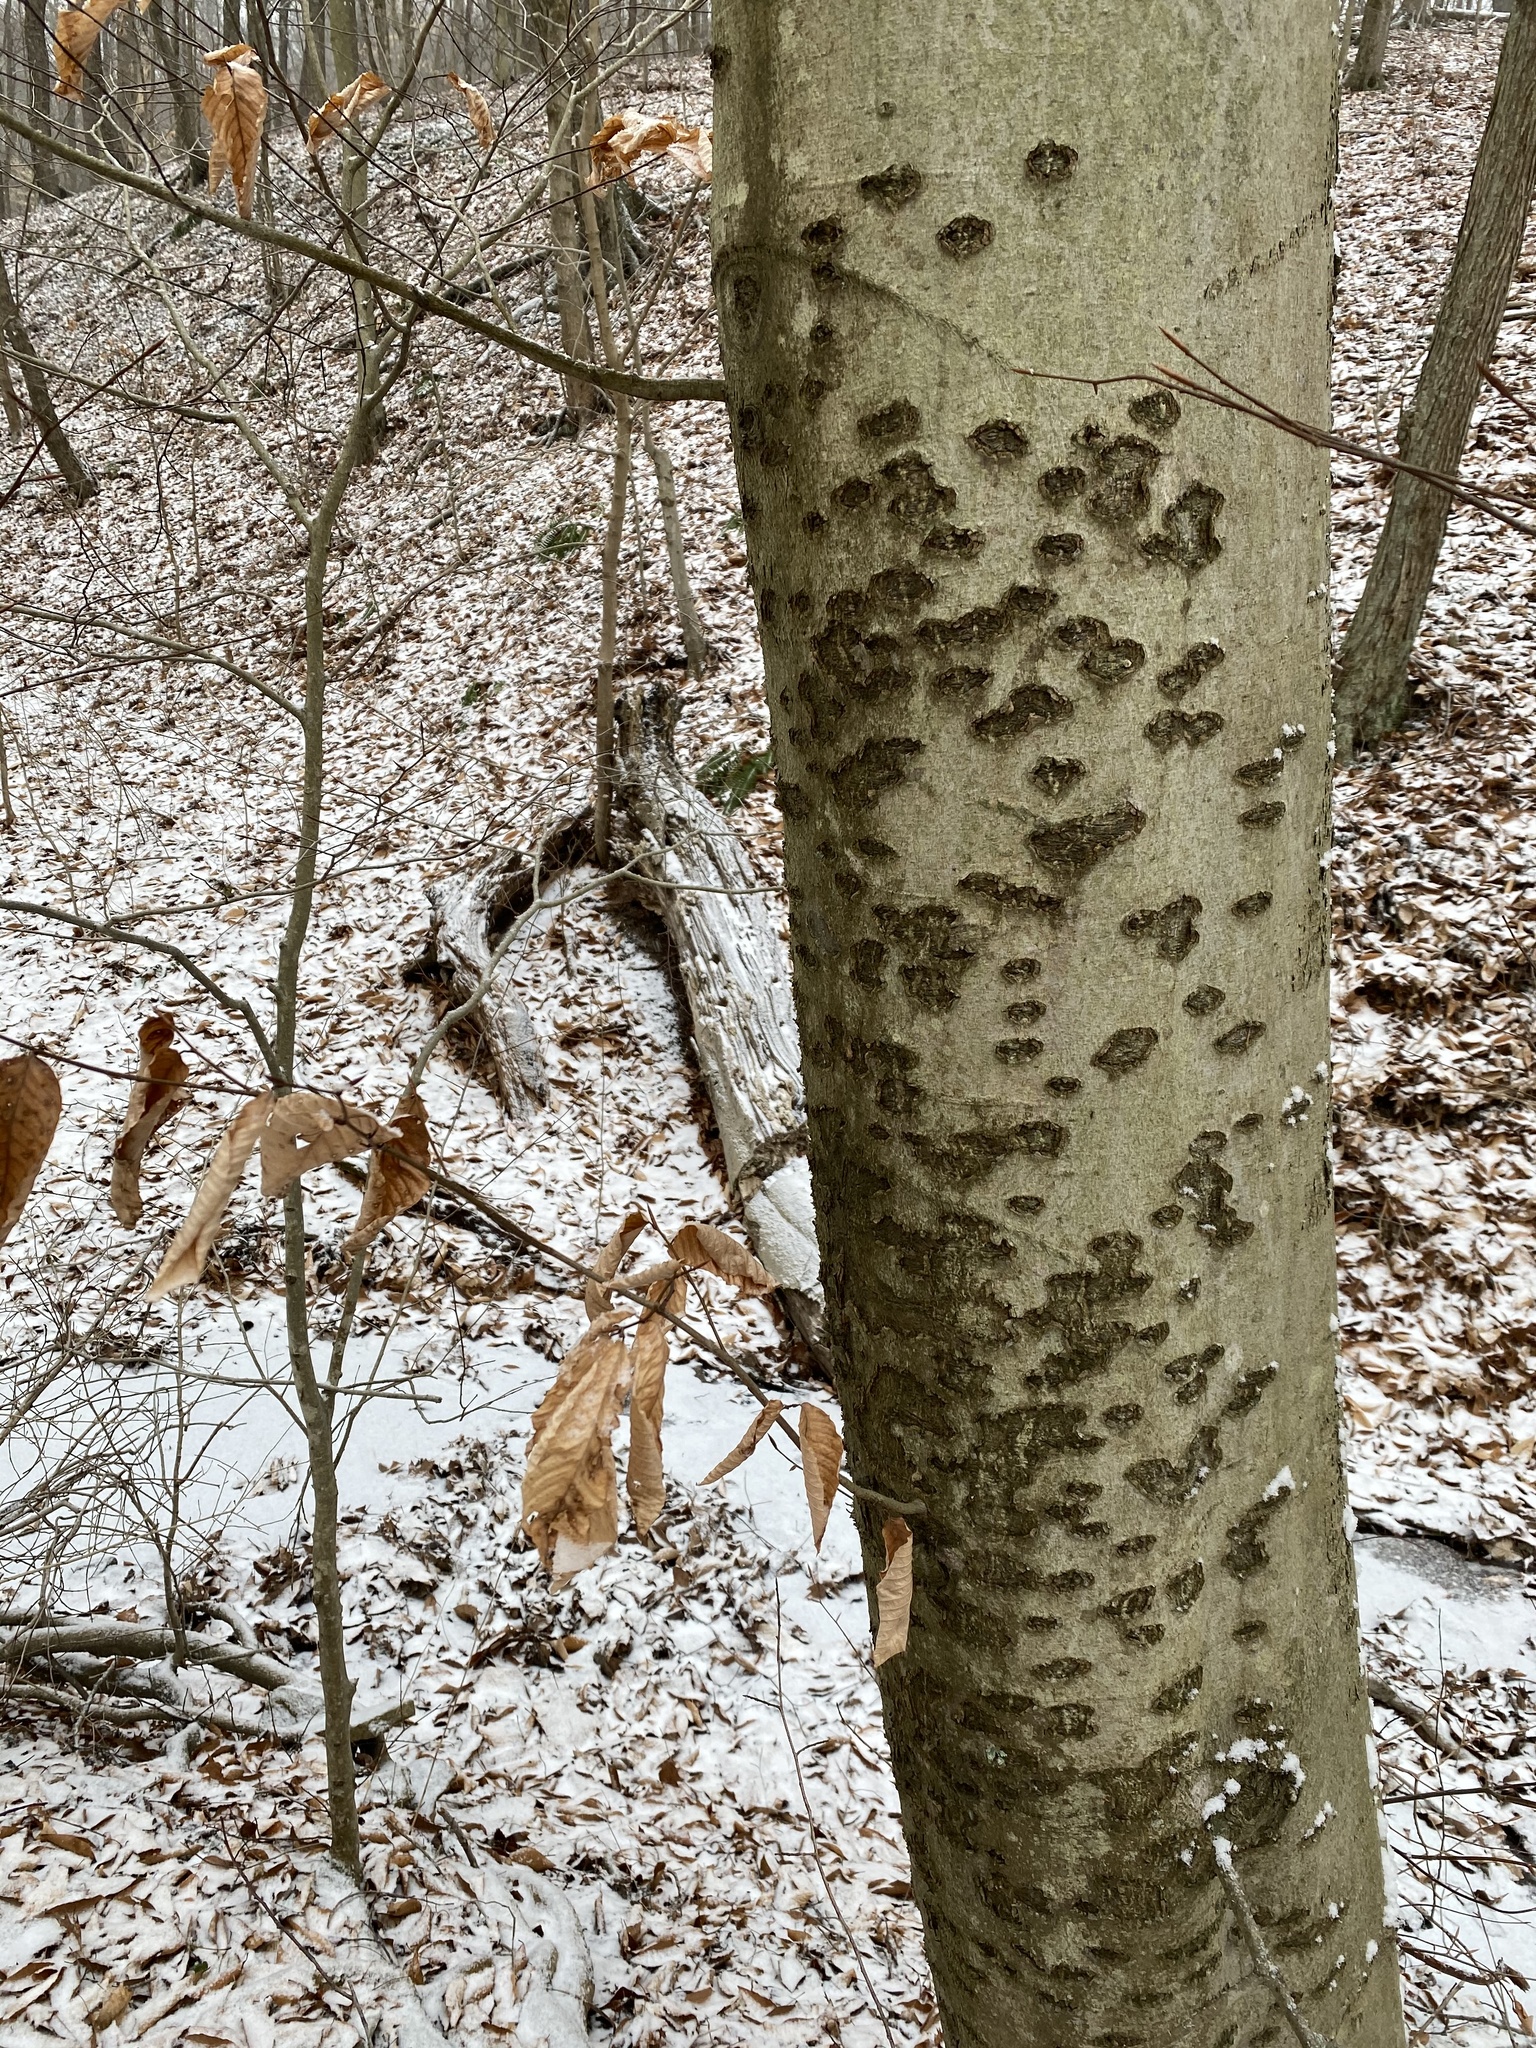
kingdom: Plantae
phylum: Tracheophyta
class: Magnoliopsida
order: Fagales
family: Fagaceae
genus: Fagus
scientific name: Fagus grandifolia
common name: American beech
